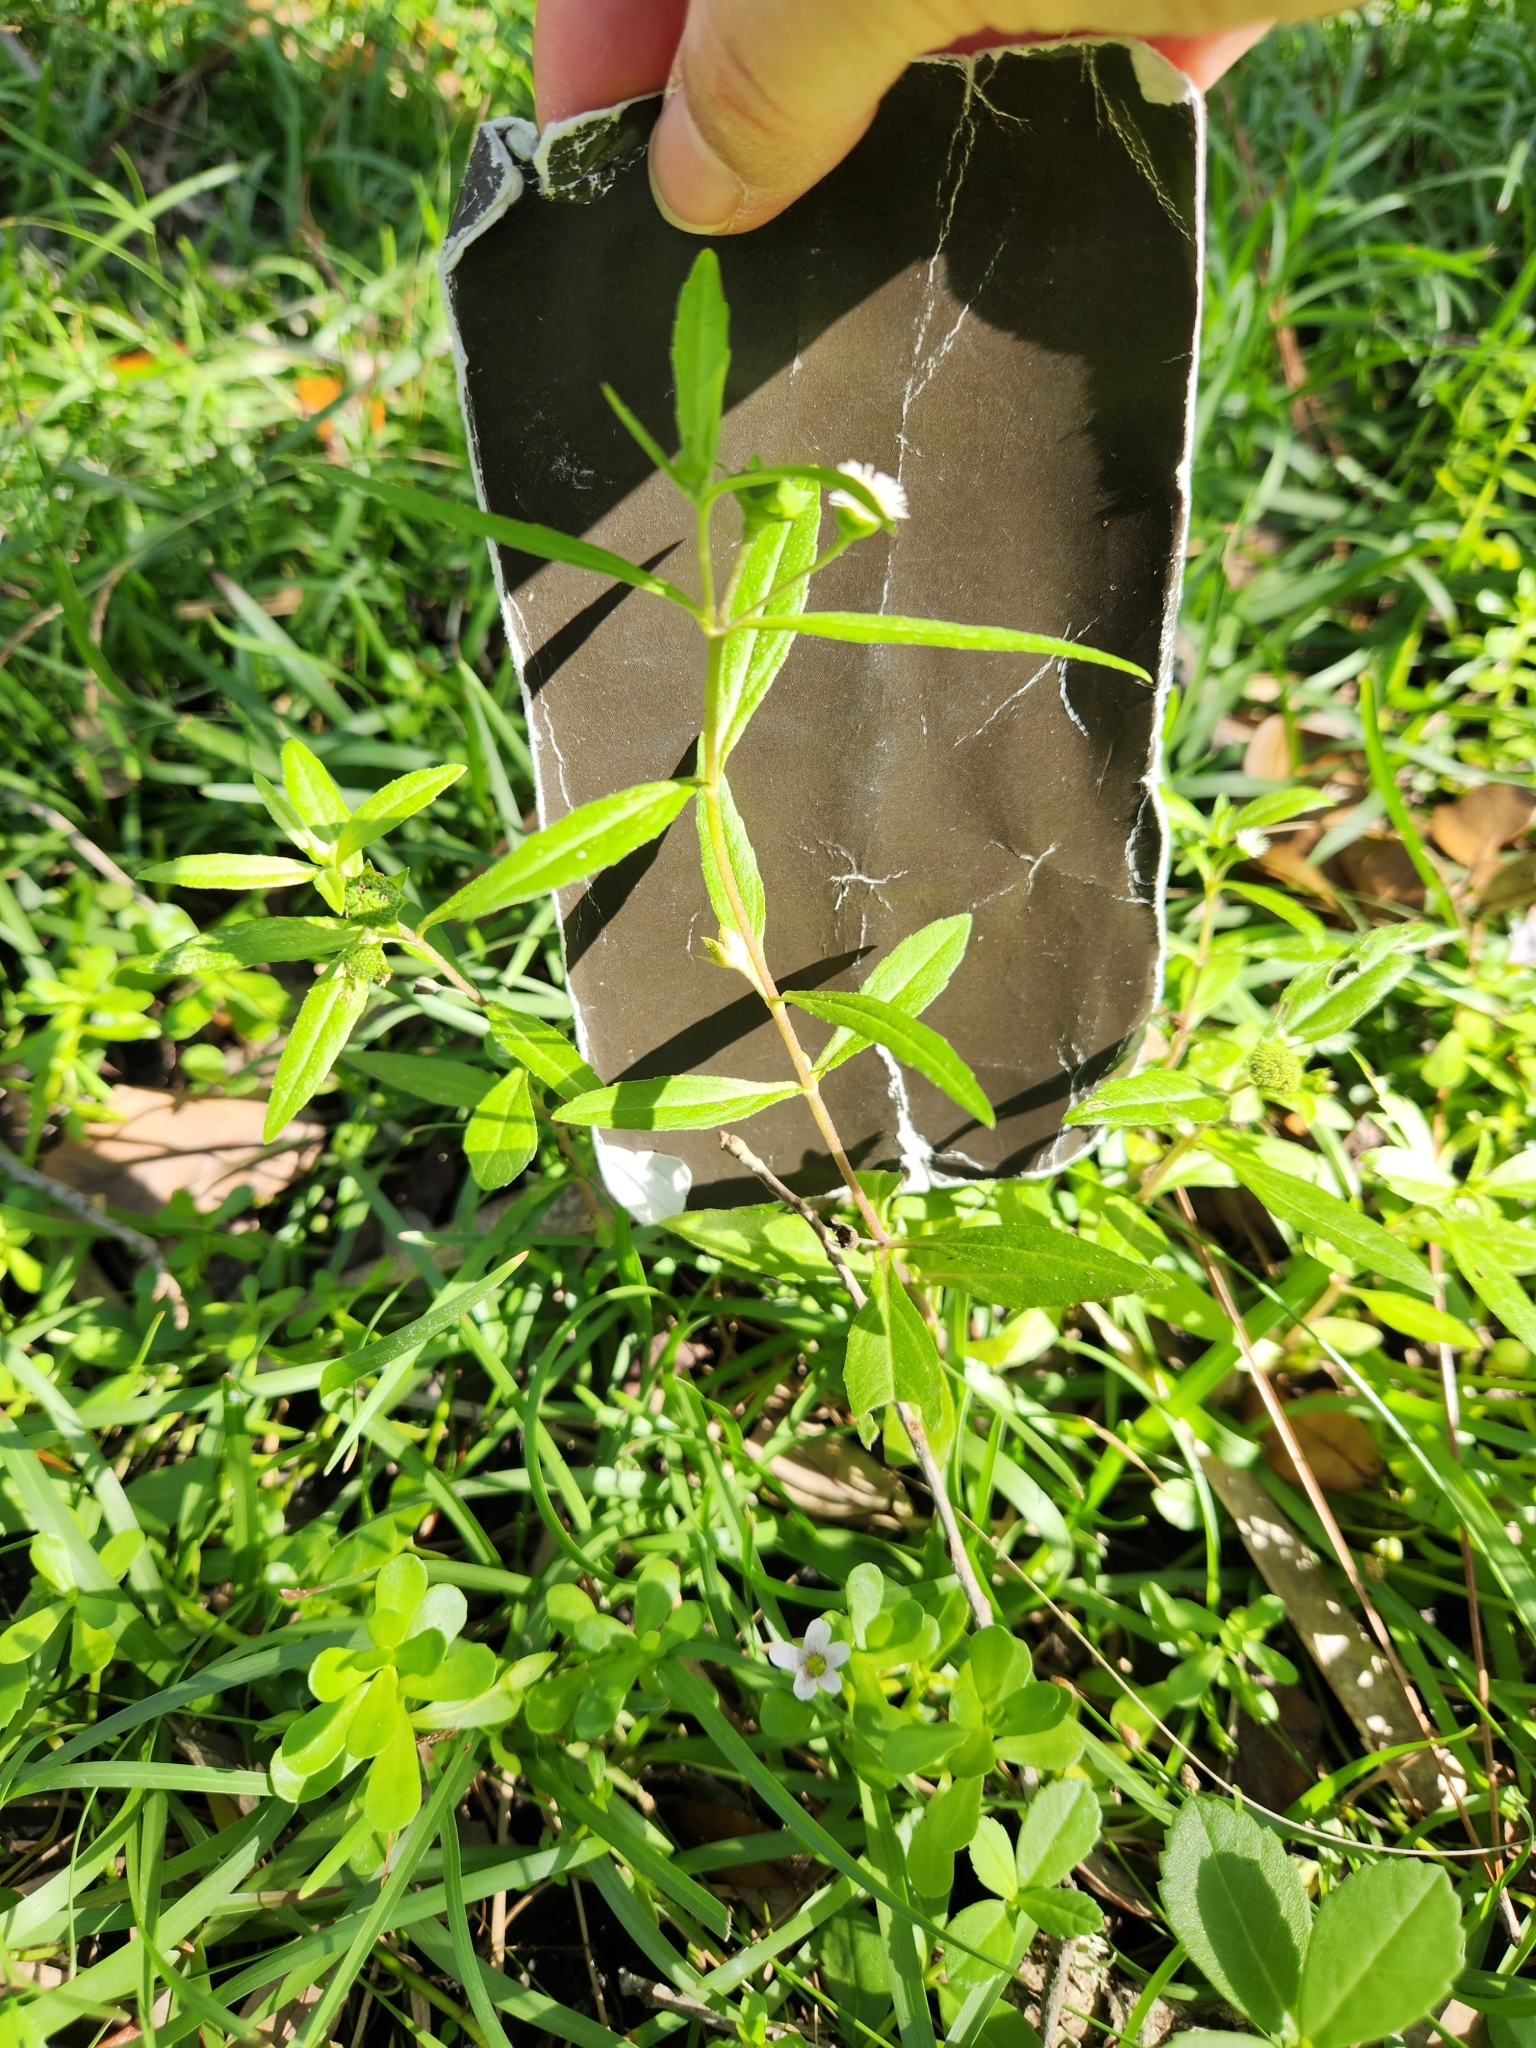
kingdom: Plantae
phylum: Tracheophyta
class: Magnoliopsida
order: Asterales
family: Asteraceae
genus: Eclipta
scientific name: Eclipta prostrata
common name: False daisy
